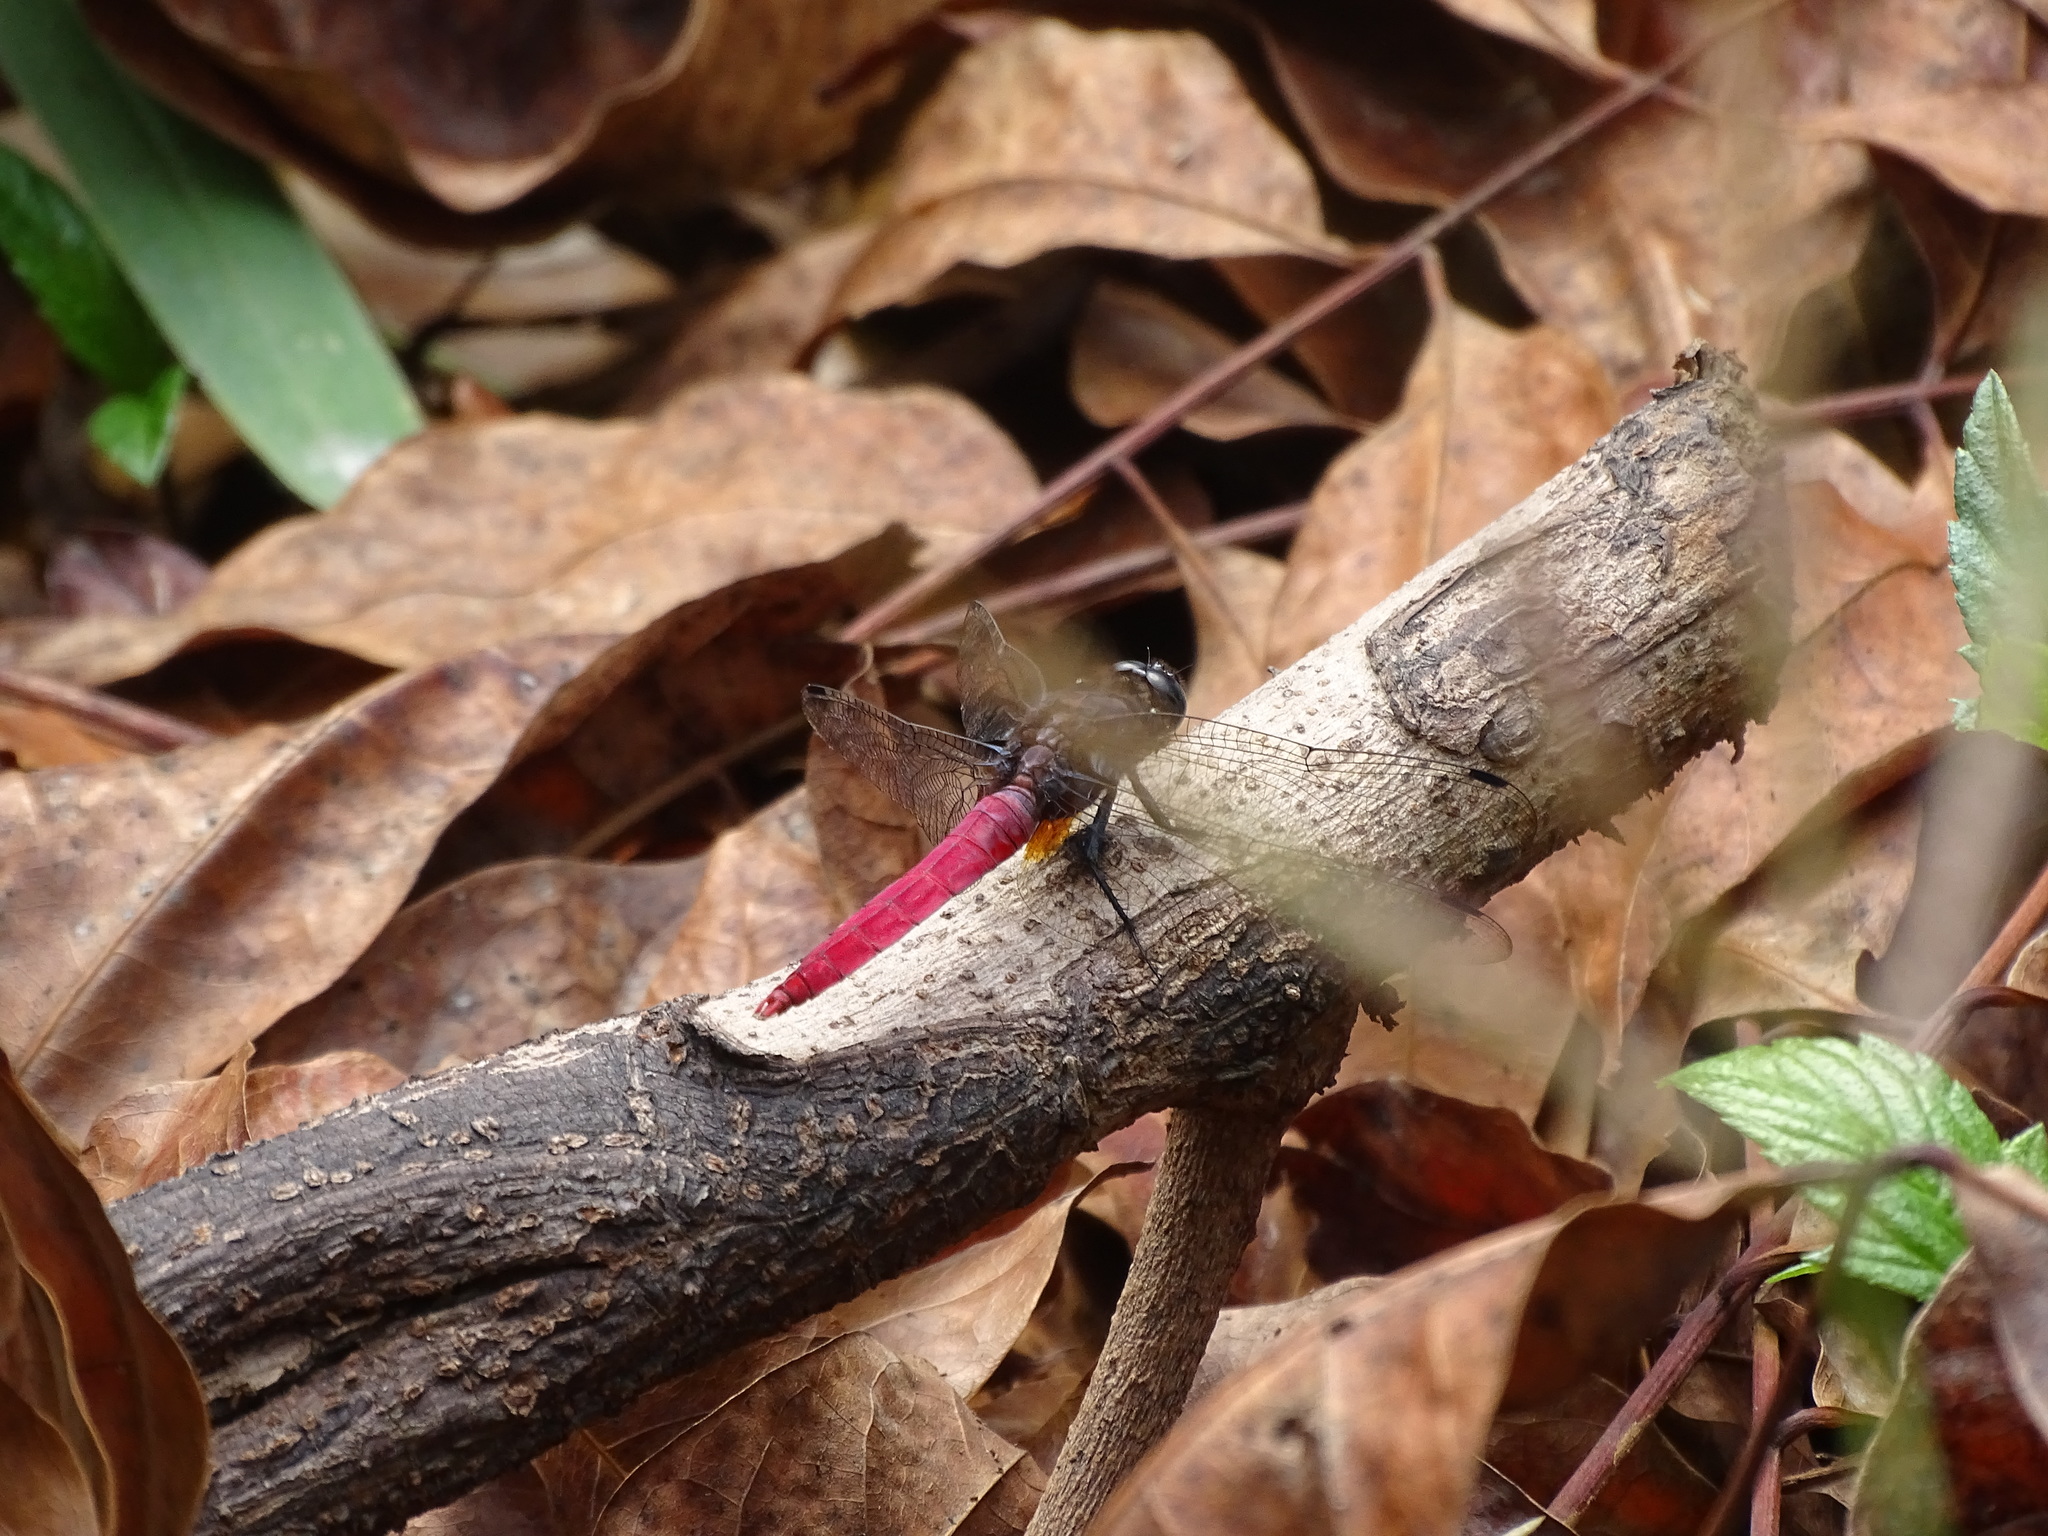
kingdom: Animalia
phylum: Arthropoda
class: Insecta
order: Odonata
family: Libellulidae
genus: Orthetrum
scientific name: Orthetrum pruinosum
